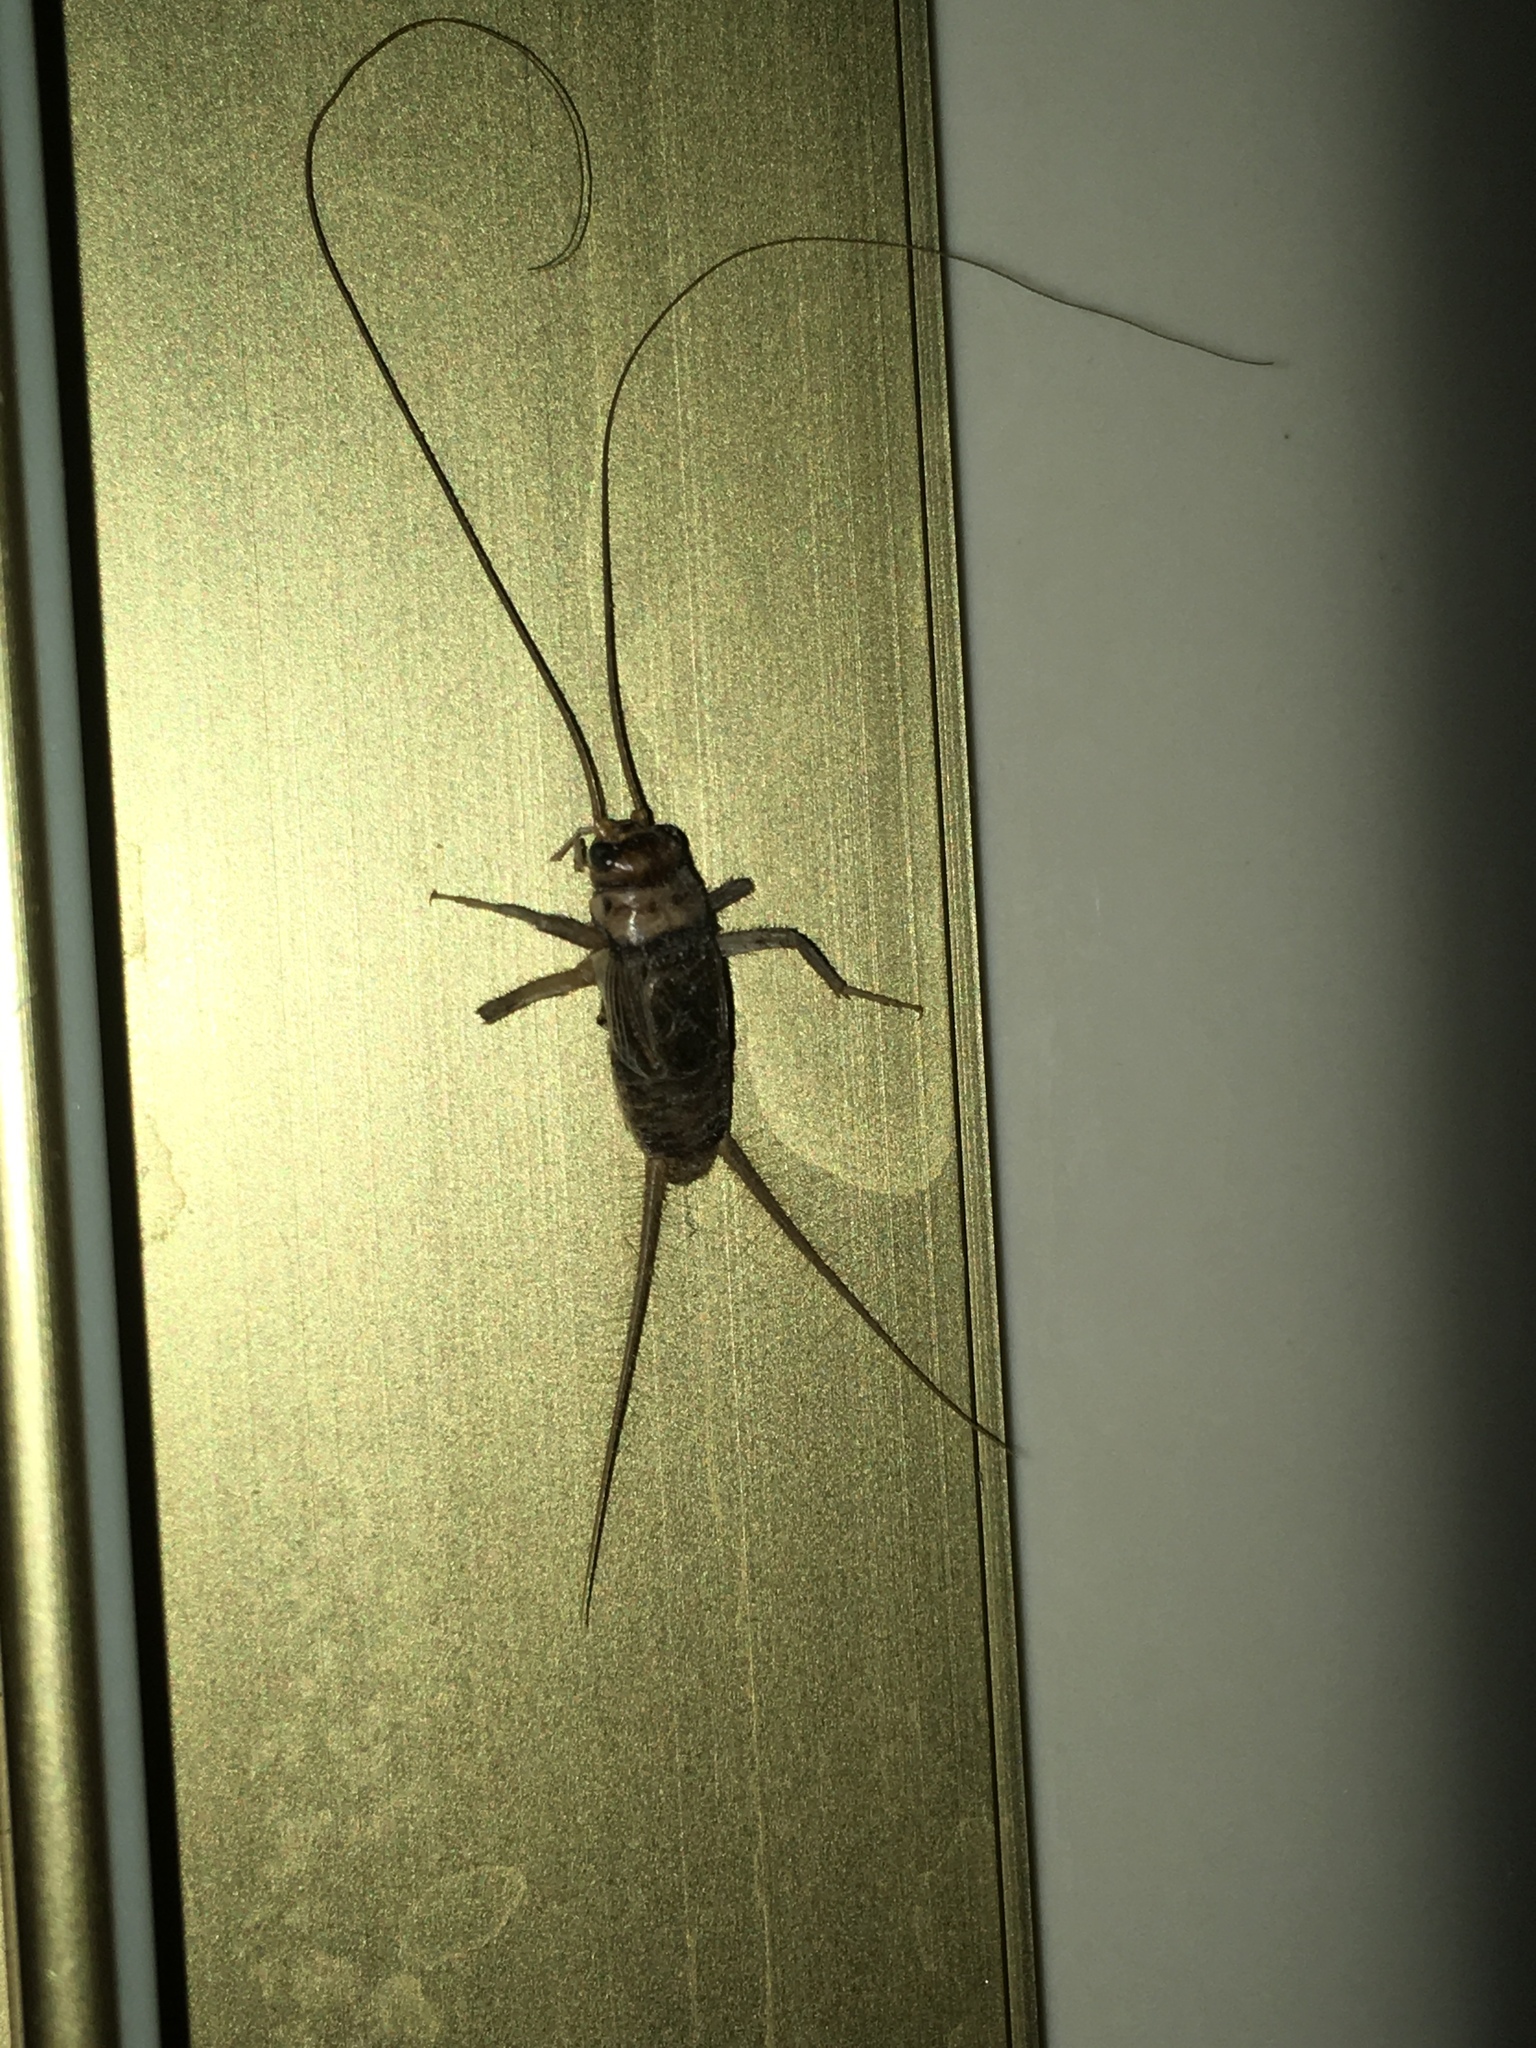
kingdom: Animalia
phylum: Arthropoda
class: Insecta
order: Orthoptera
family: Gryllidae
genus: Gryllodes
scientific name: Gryllodes sigillatus
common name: Tropical house cricket
